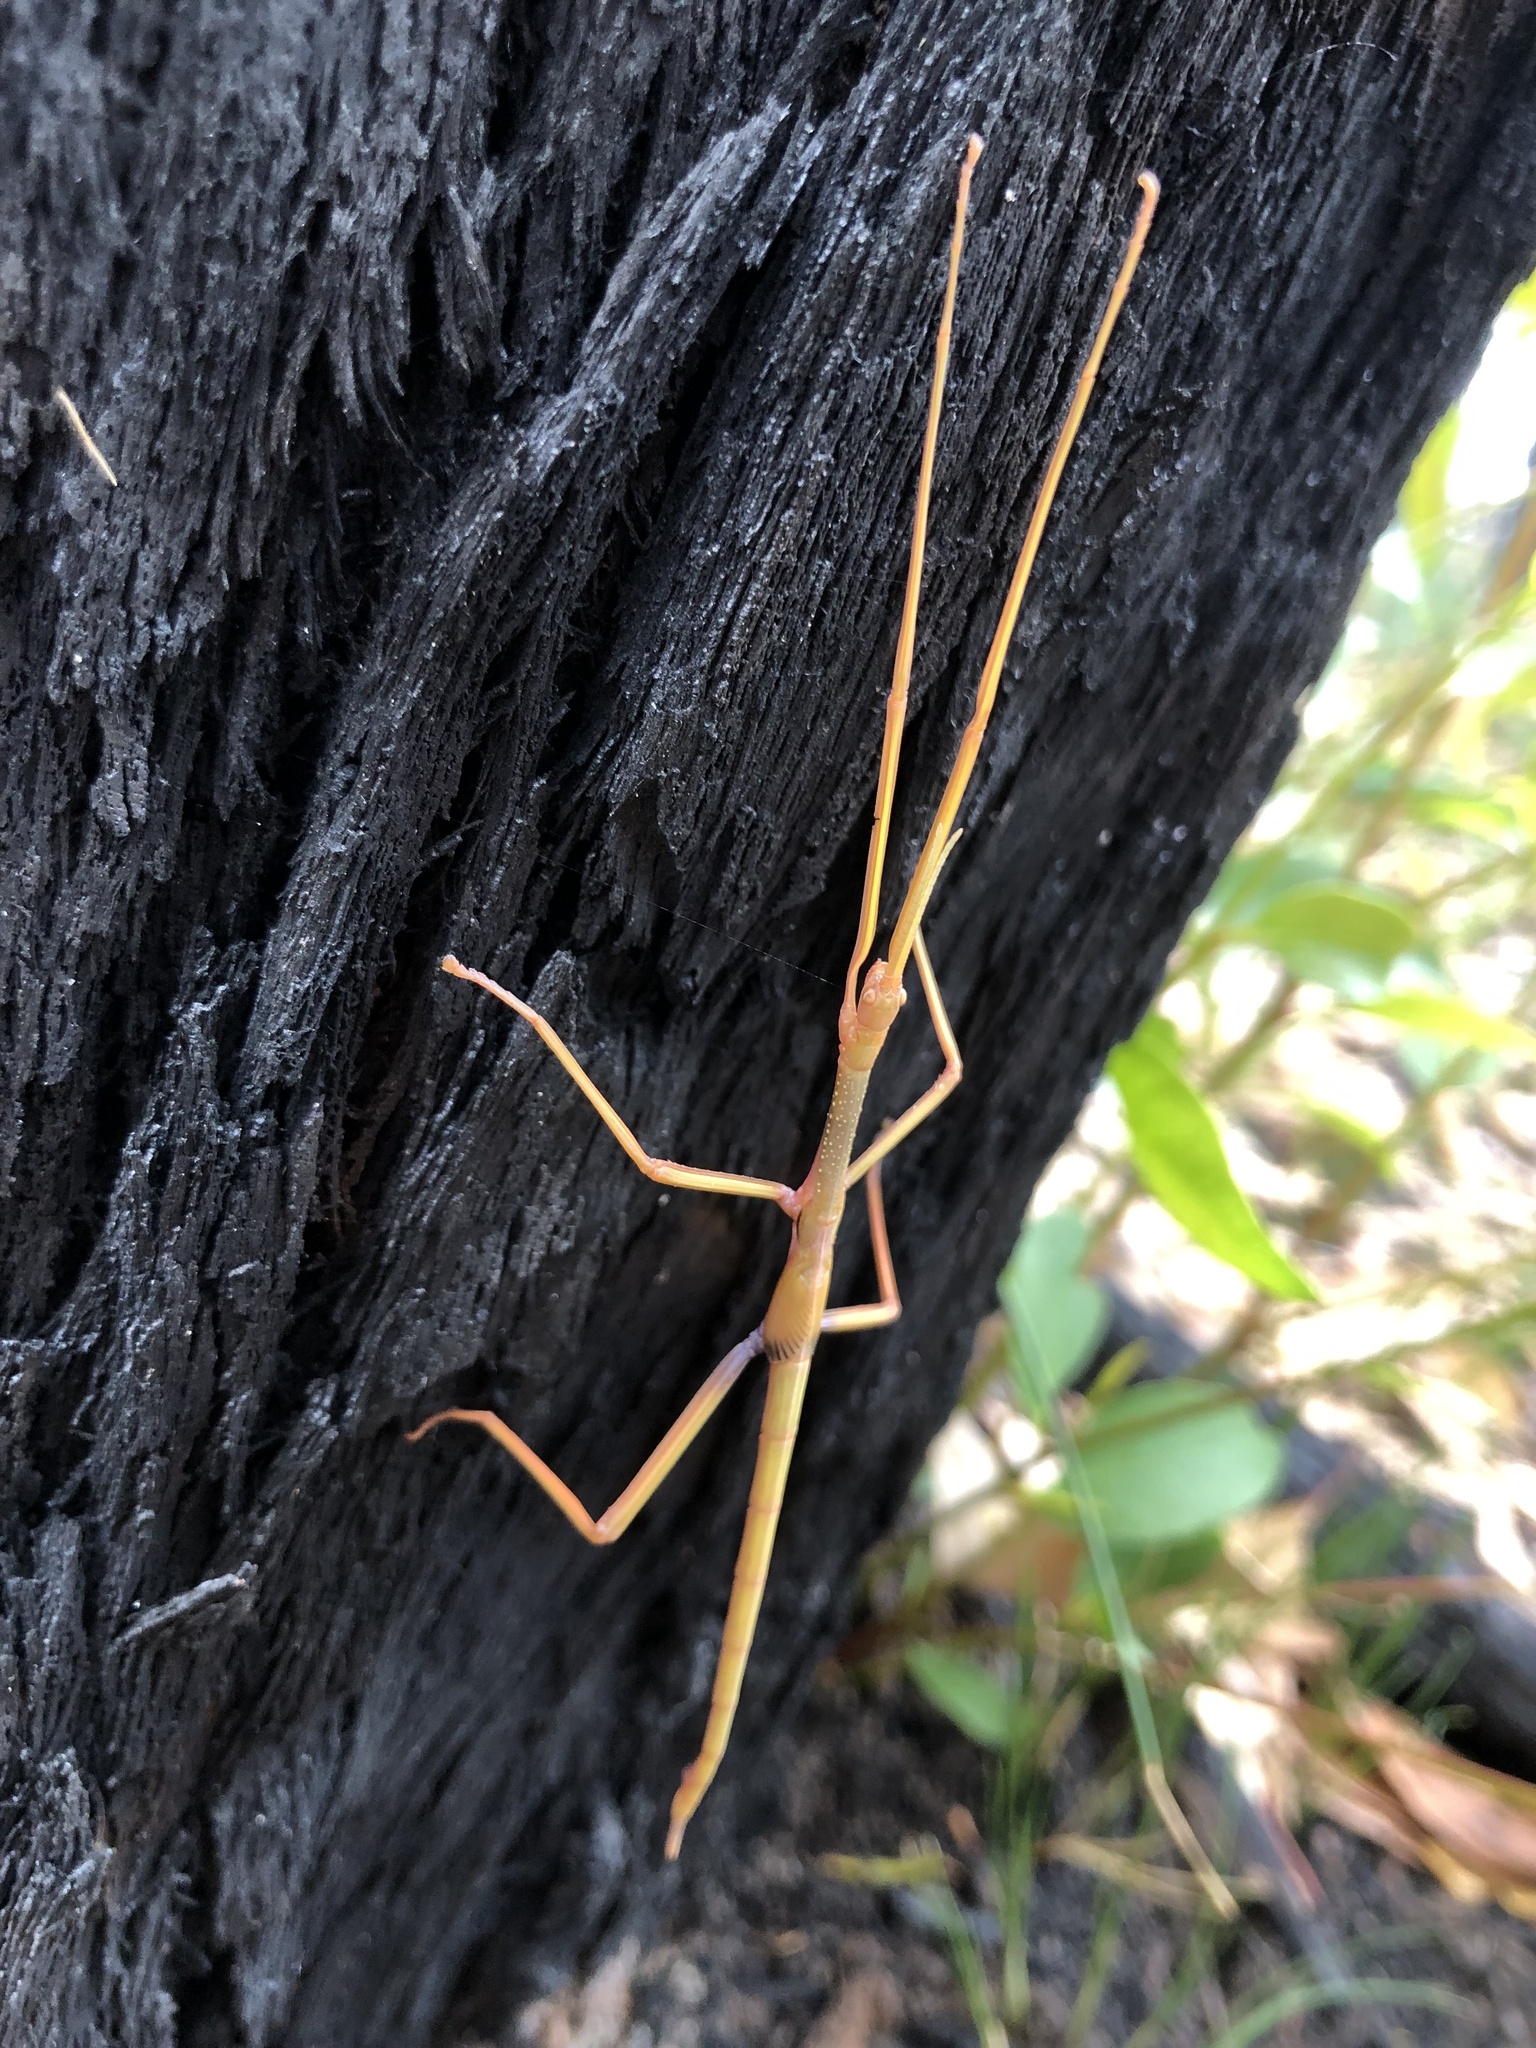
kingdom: Animalia
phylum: Arthropoda
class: Insecta
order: Phasmida
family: Phasmatidae
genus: Didymuria
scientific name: Didymuria violescens
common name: Spur-legged stick-insect
